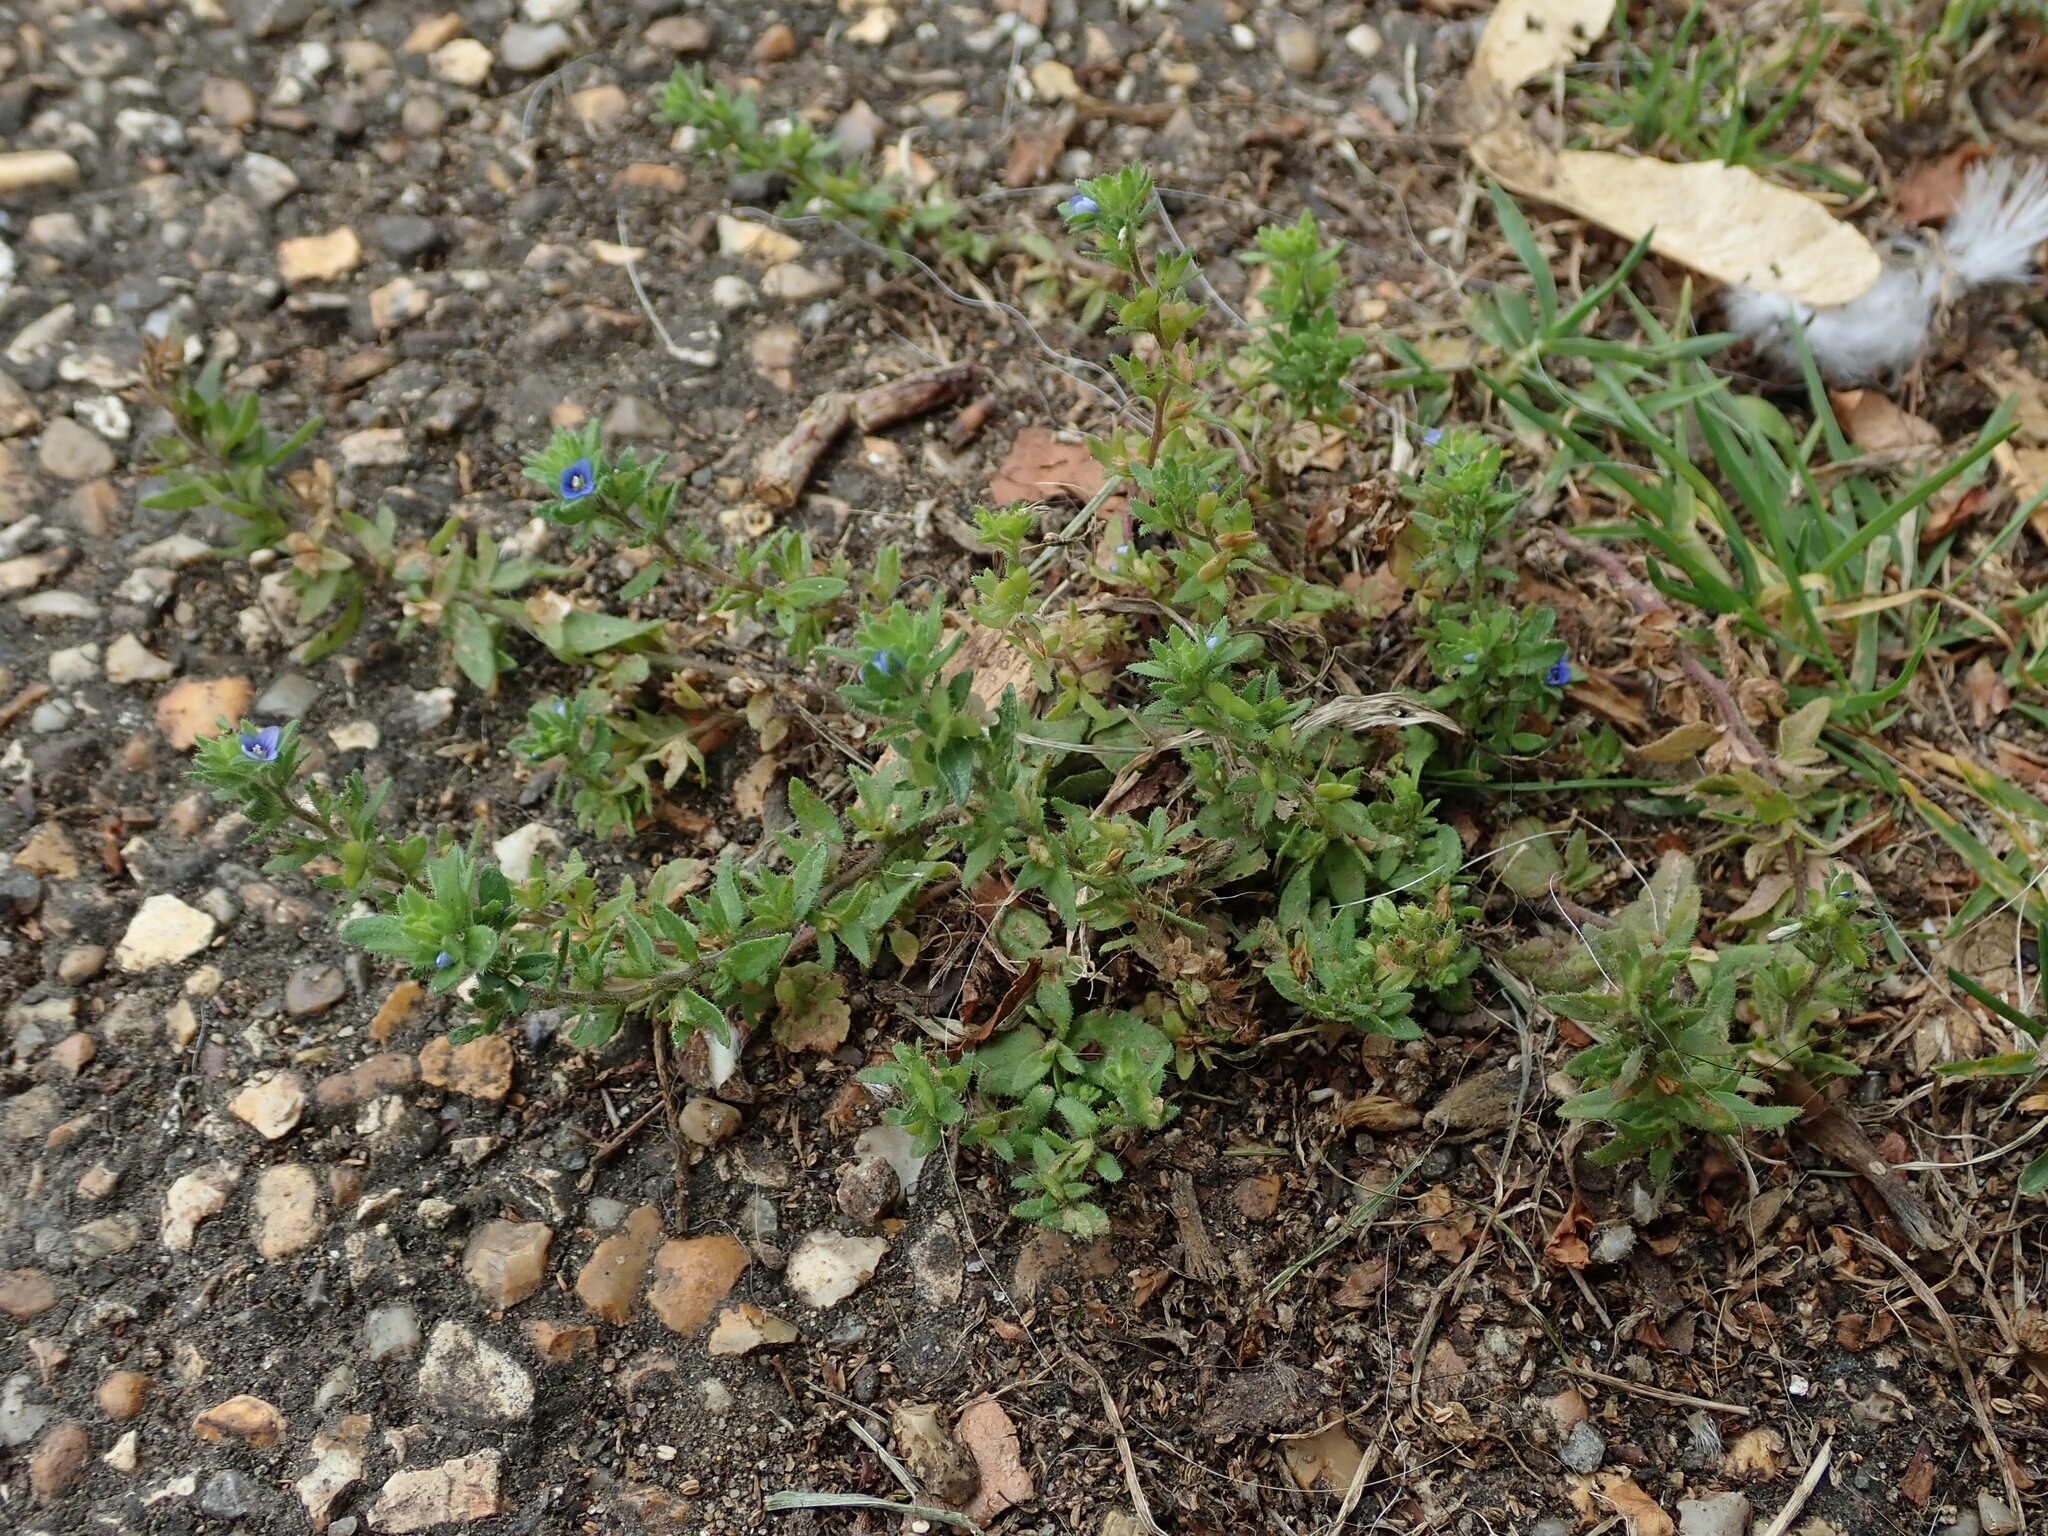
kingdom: Plantae
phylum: Tracheophyta
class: Magnoliopsida
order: Lamiales
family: Plantaginaceae
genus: Veronica
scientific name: Veronica arvensis
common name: Corn speedwell
